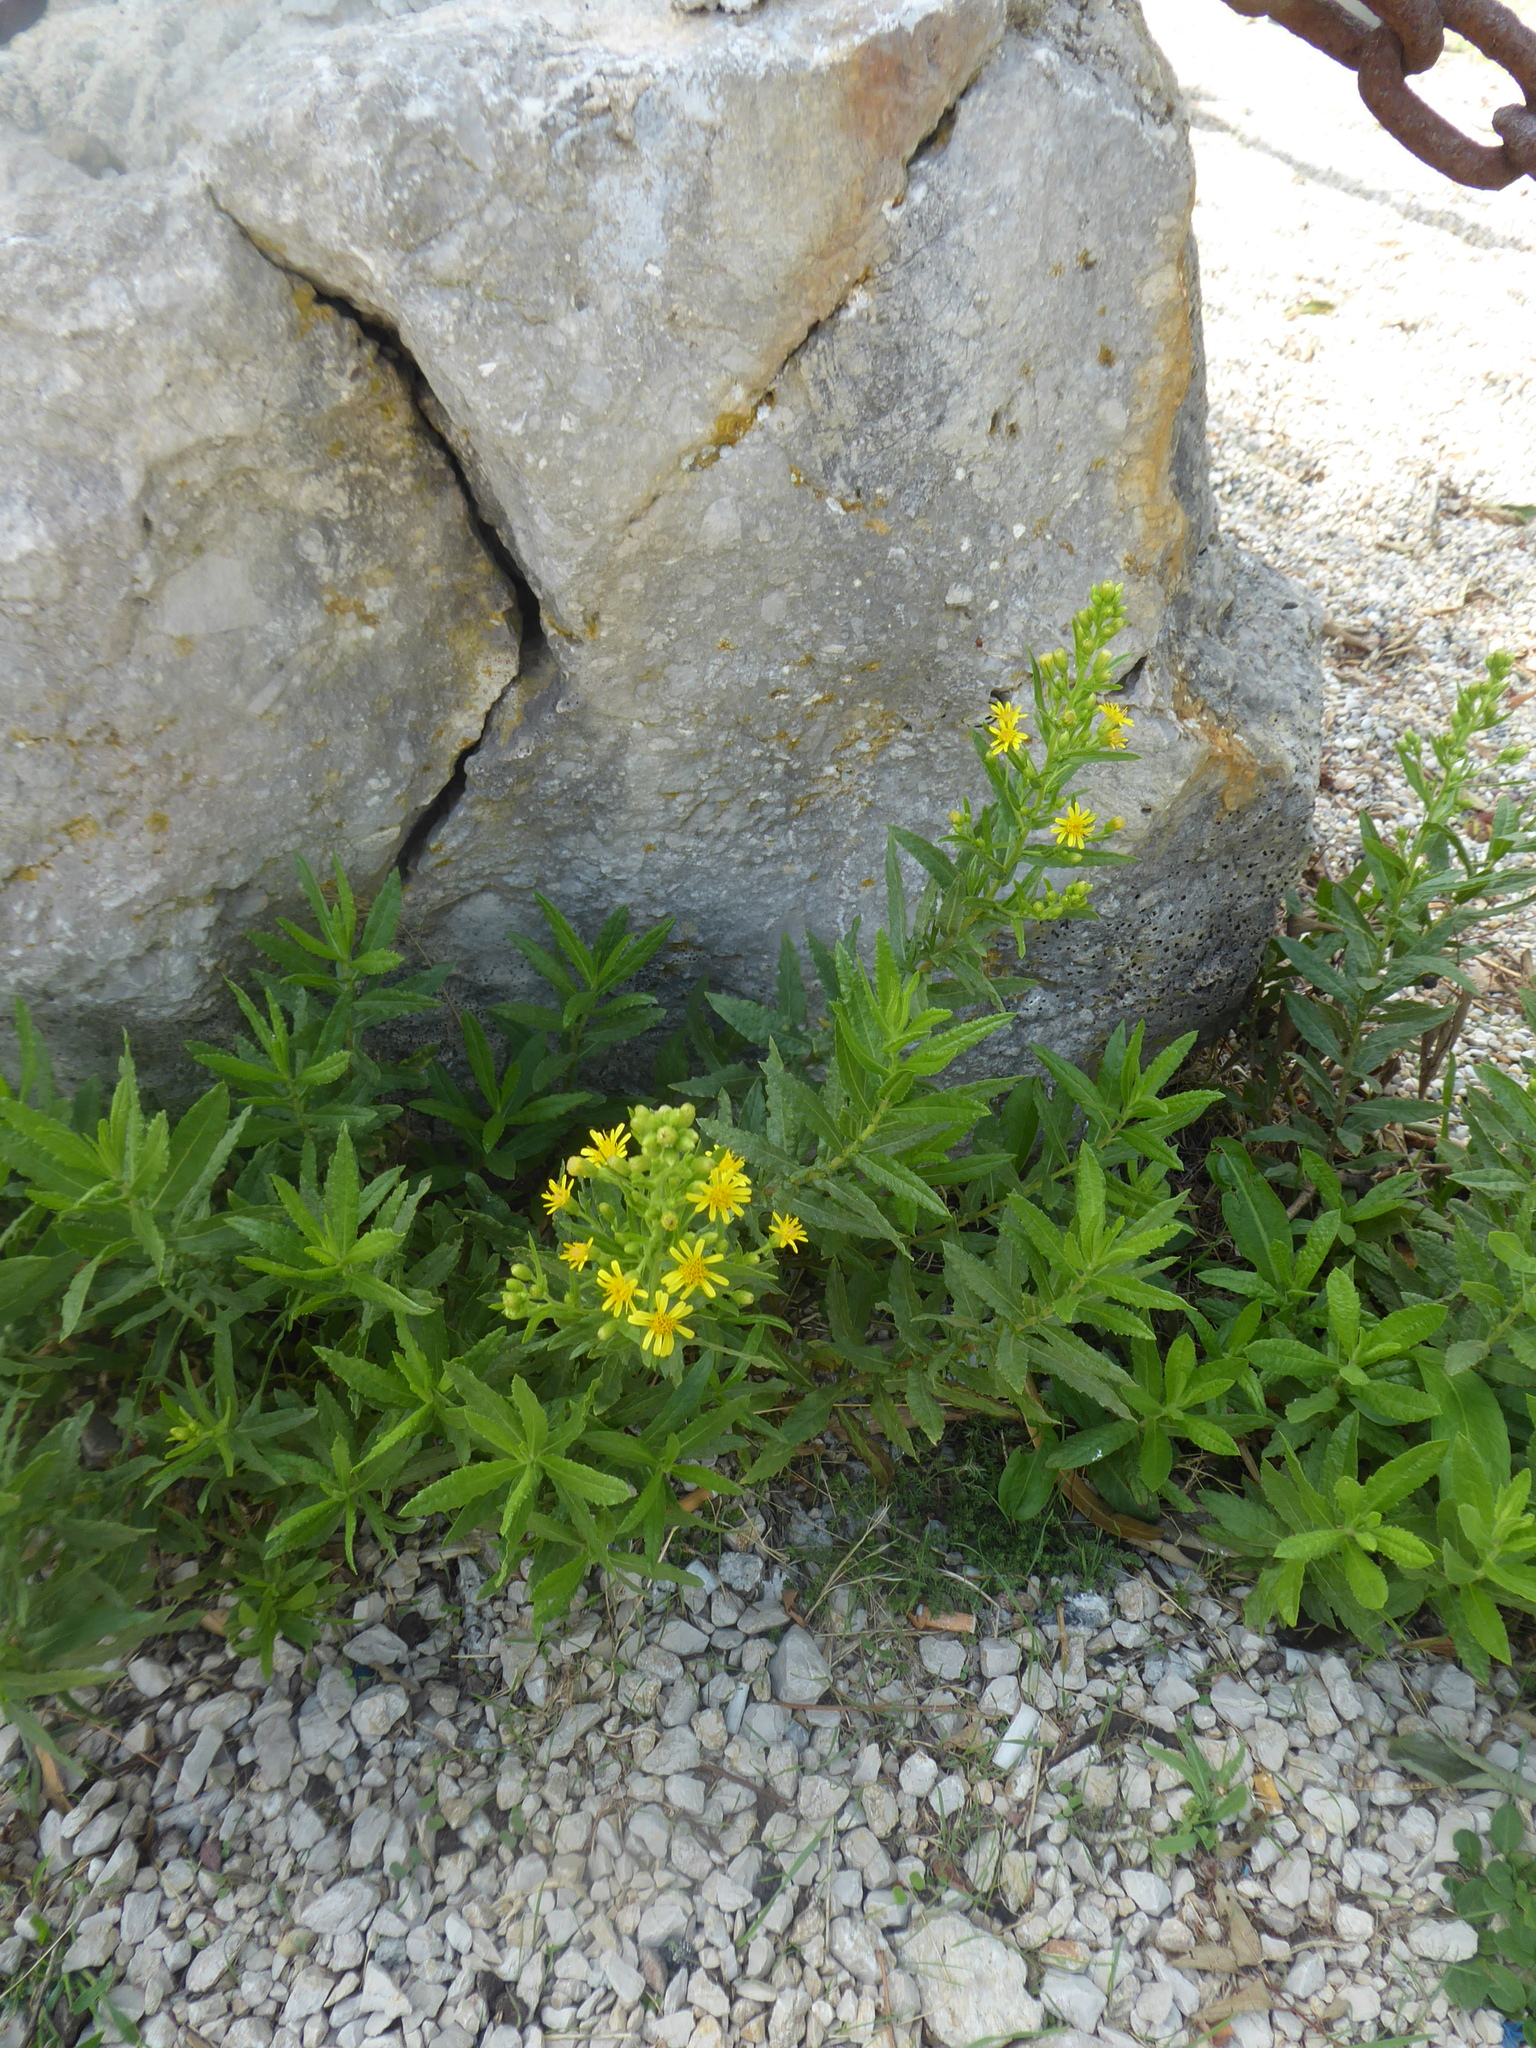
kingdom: Plantae
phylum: Tracheophyta
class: Magnoliopsida
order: Asterales
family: Asteraceae
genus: Dittrichia
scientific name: Dittrichia viscosa
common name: Woody fleabane
